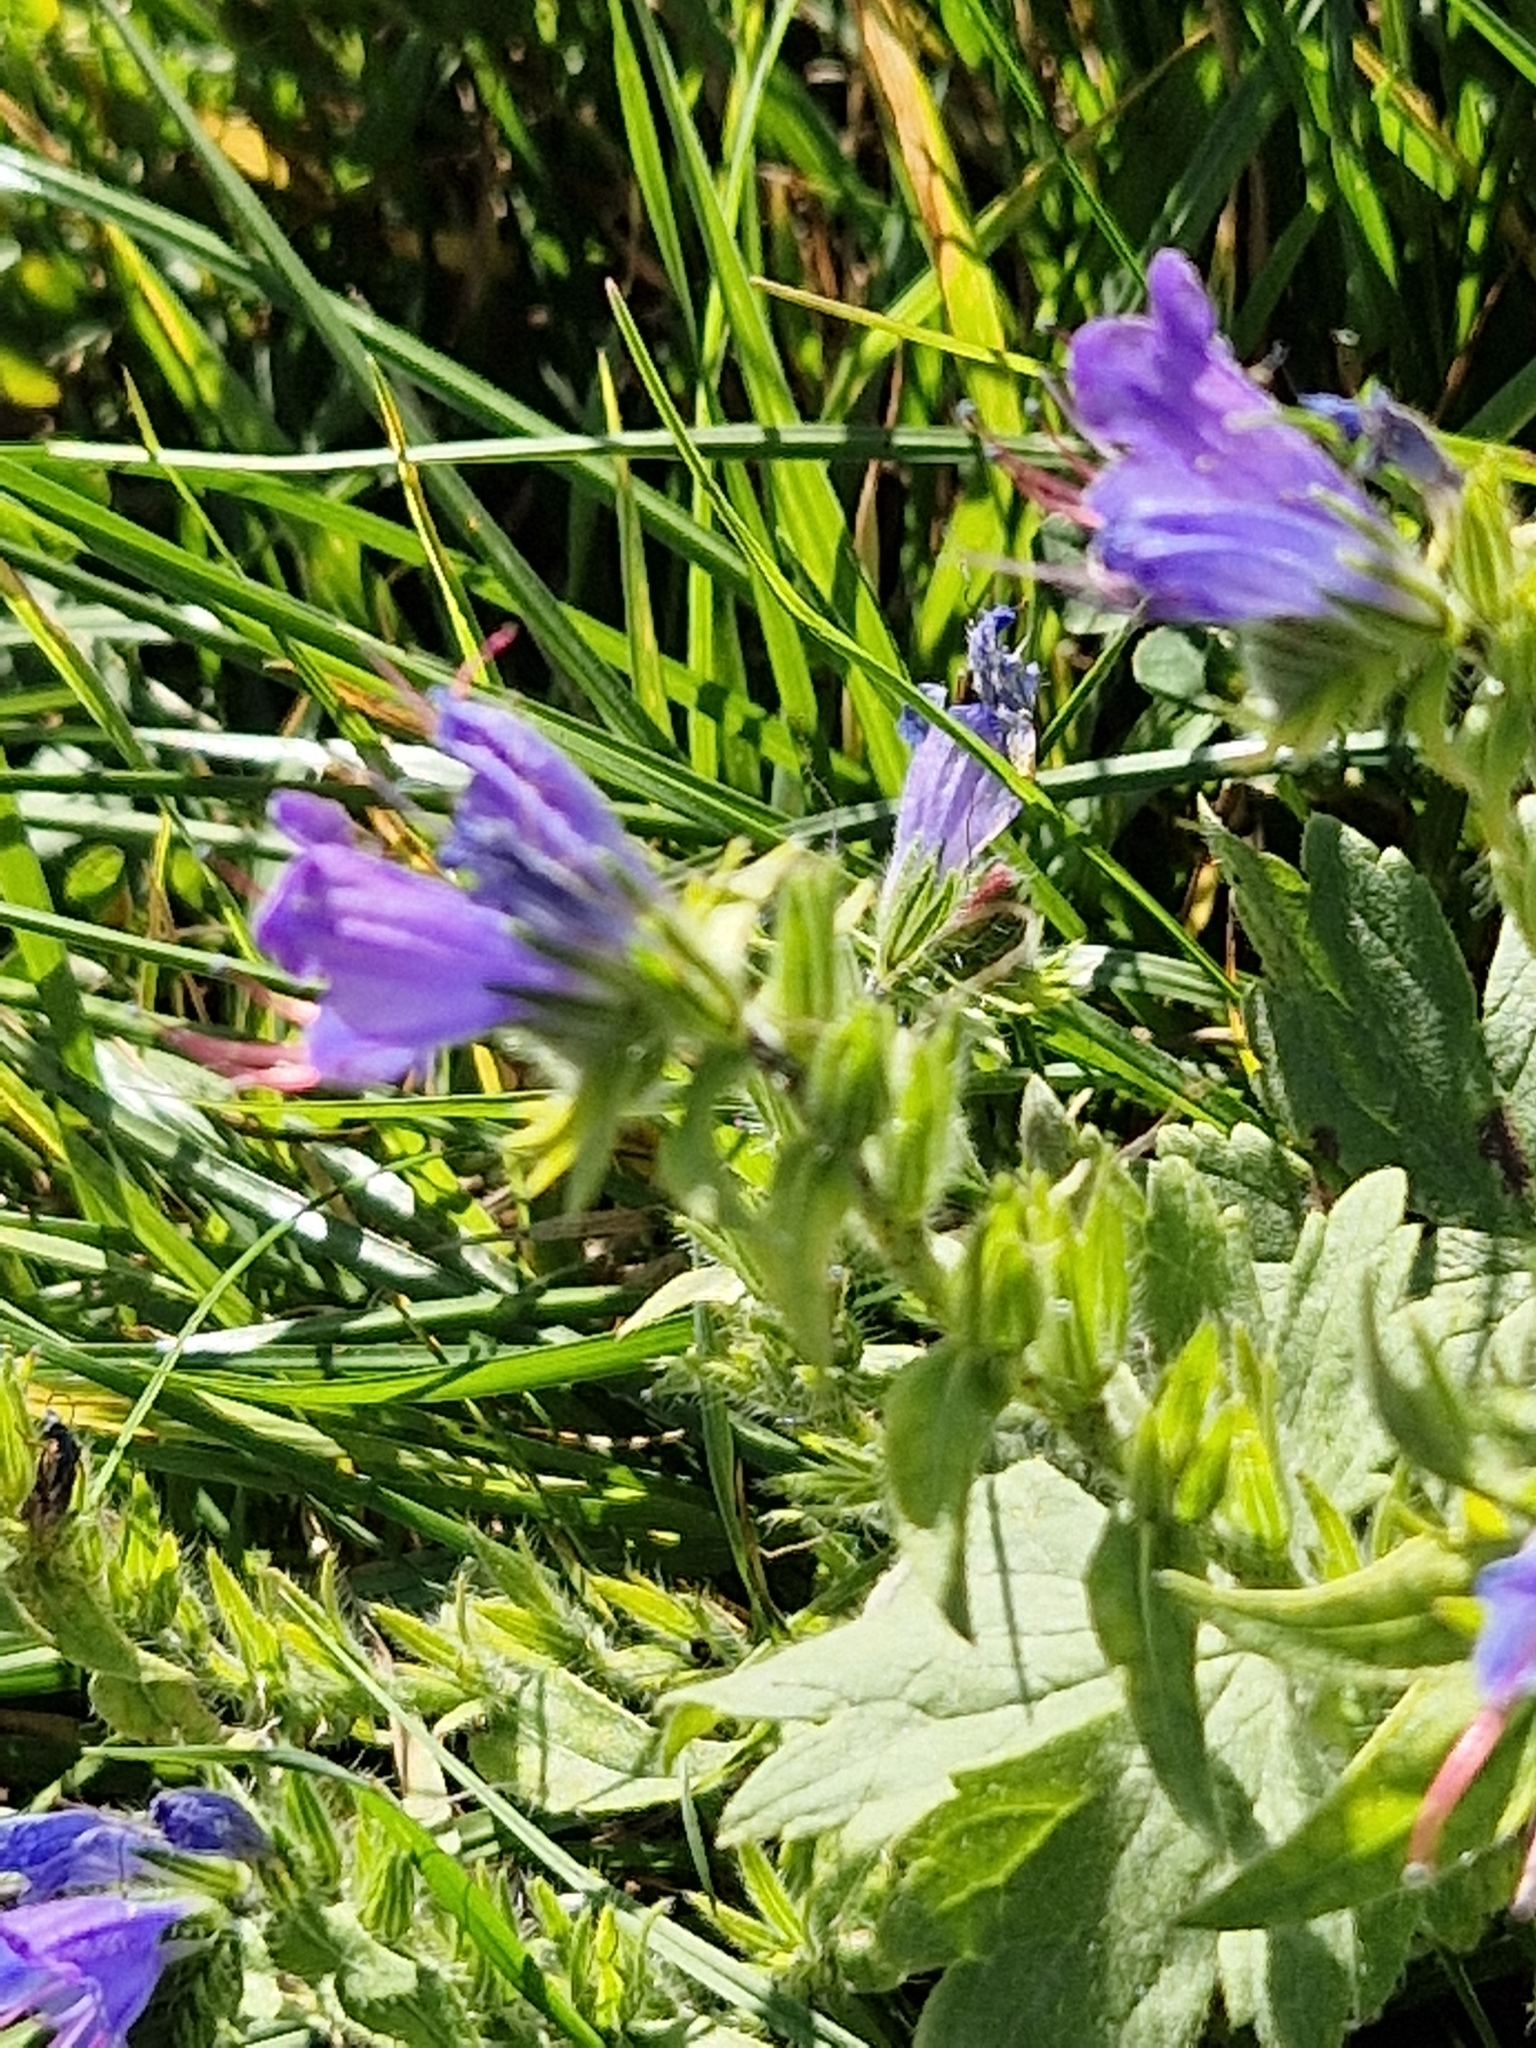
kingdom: Plantae
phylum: Tracheophyta
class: Magnoliopsida
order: Boraginales
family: Boraginaceae
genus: Echium
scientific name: Echium vulgare
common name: Common viper's bugloss
